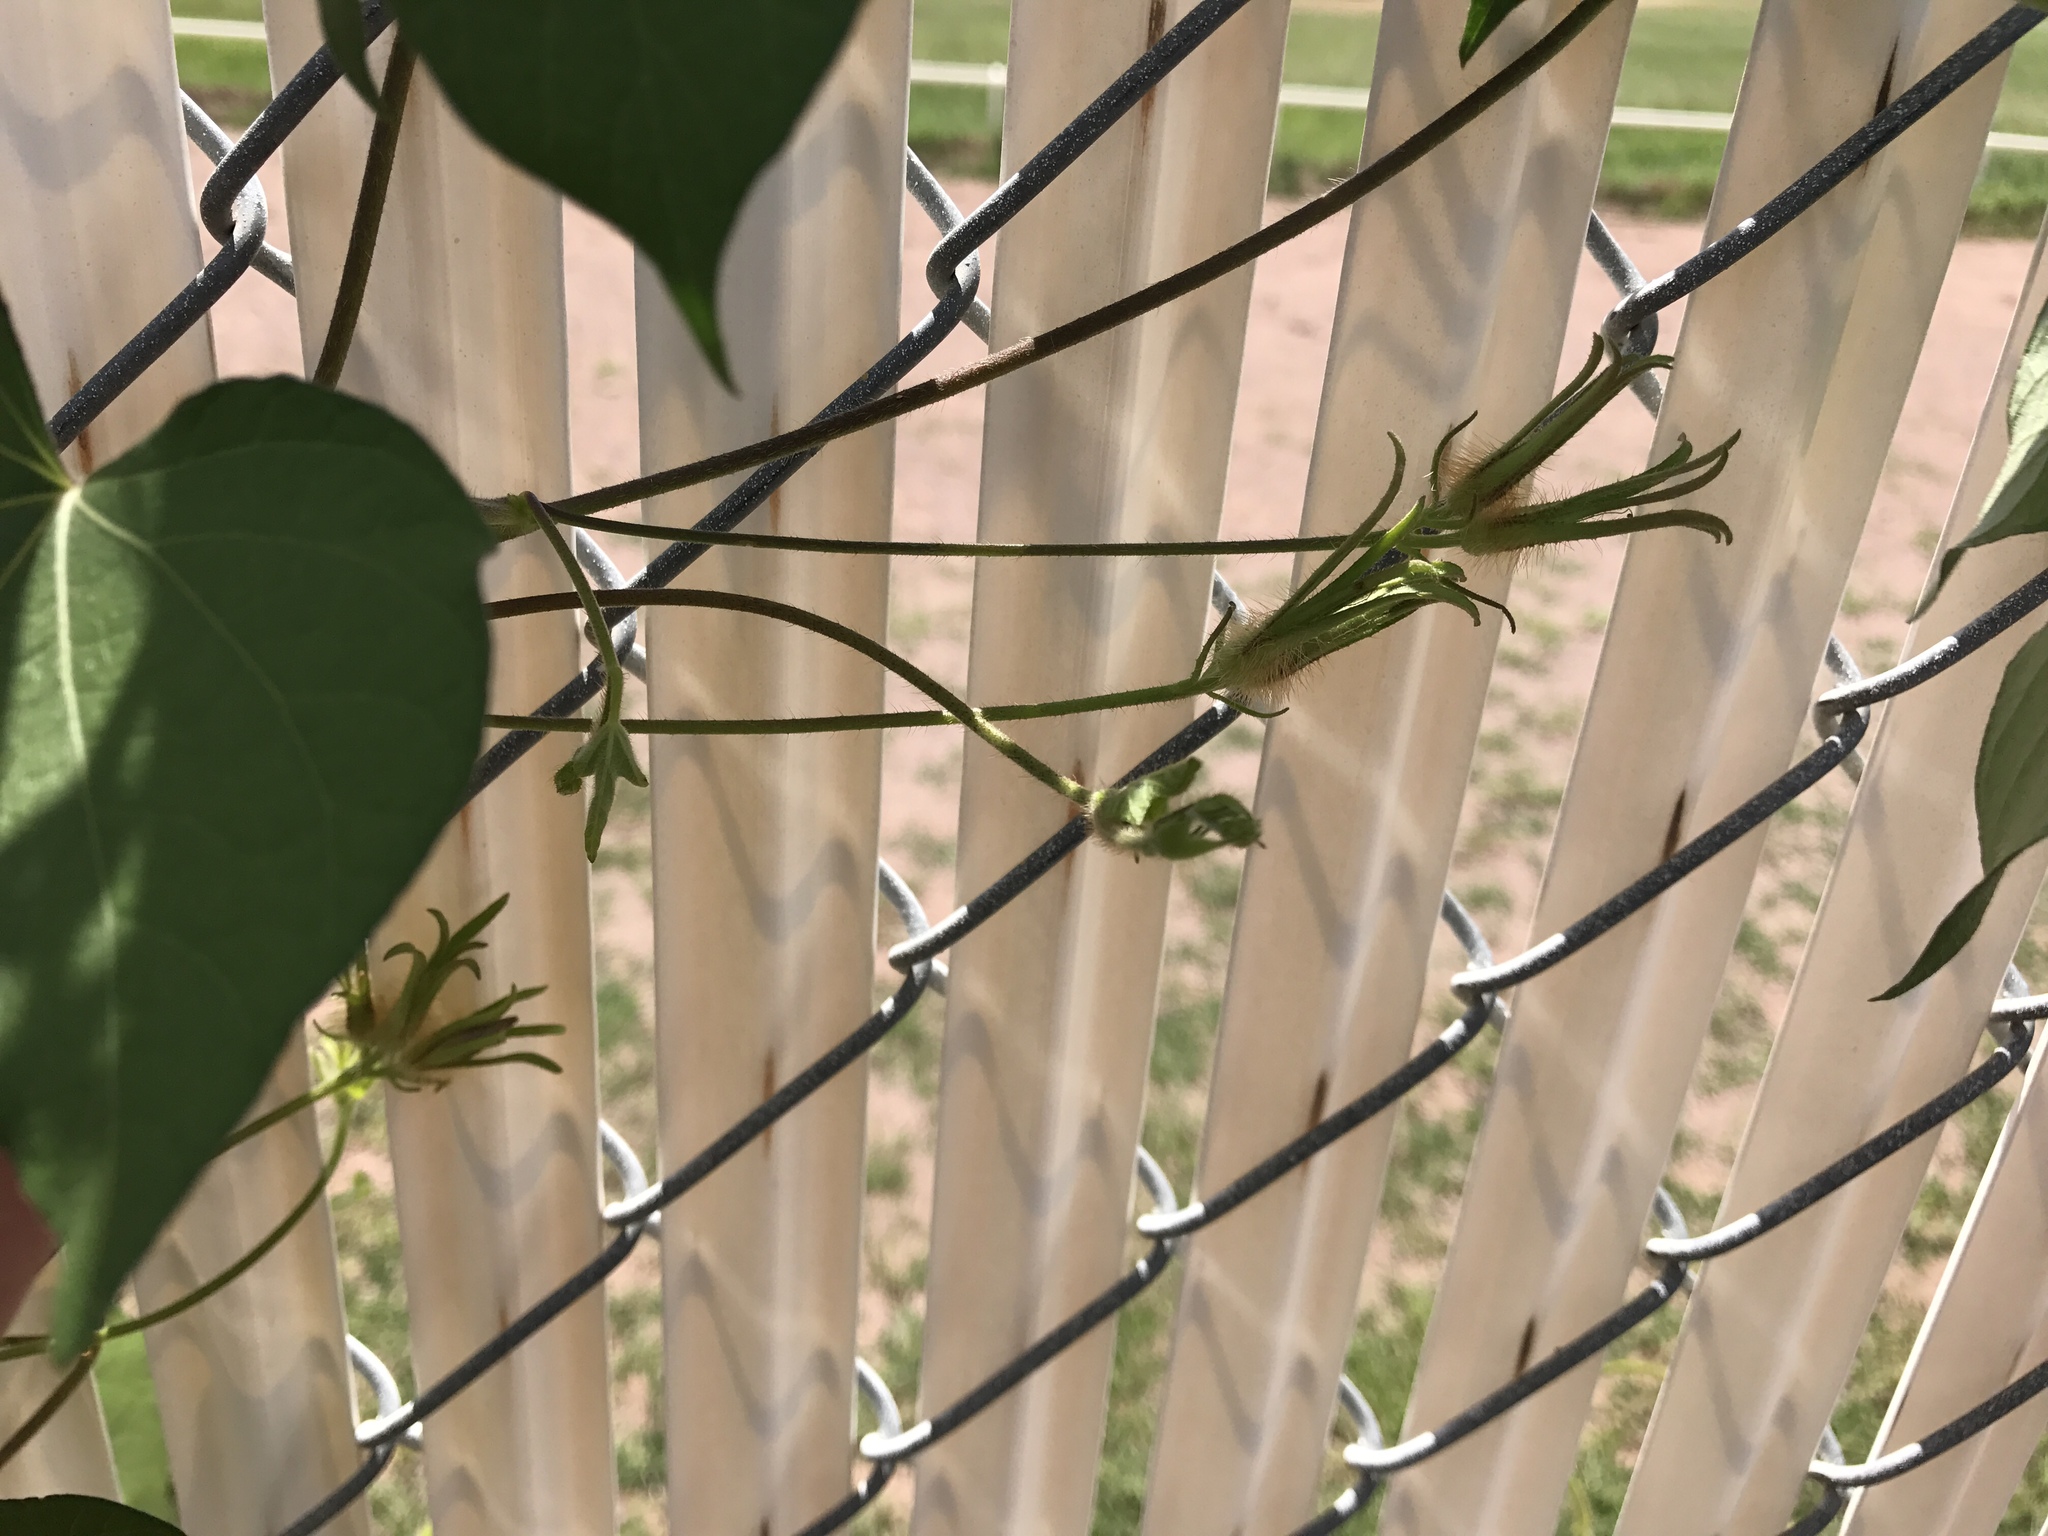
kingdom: Plantae
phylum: Tracheophyta
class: Magnoliopsida
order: Solanales
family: Convolvulaceae
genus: Ipomoea
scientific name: Ipomoea hederacea
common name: Ivy-leaved morning-glory
